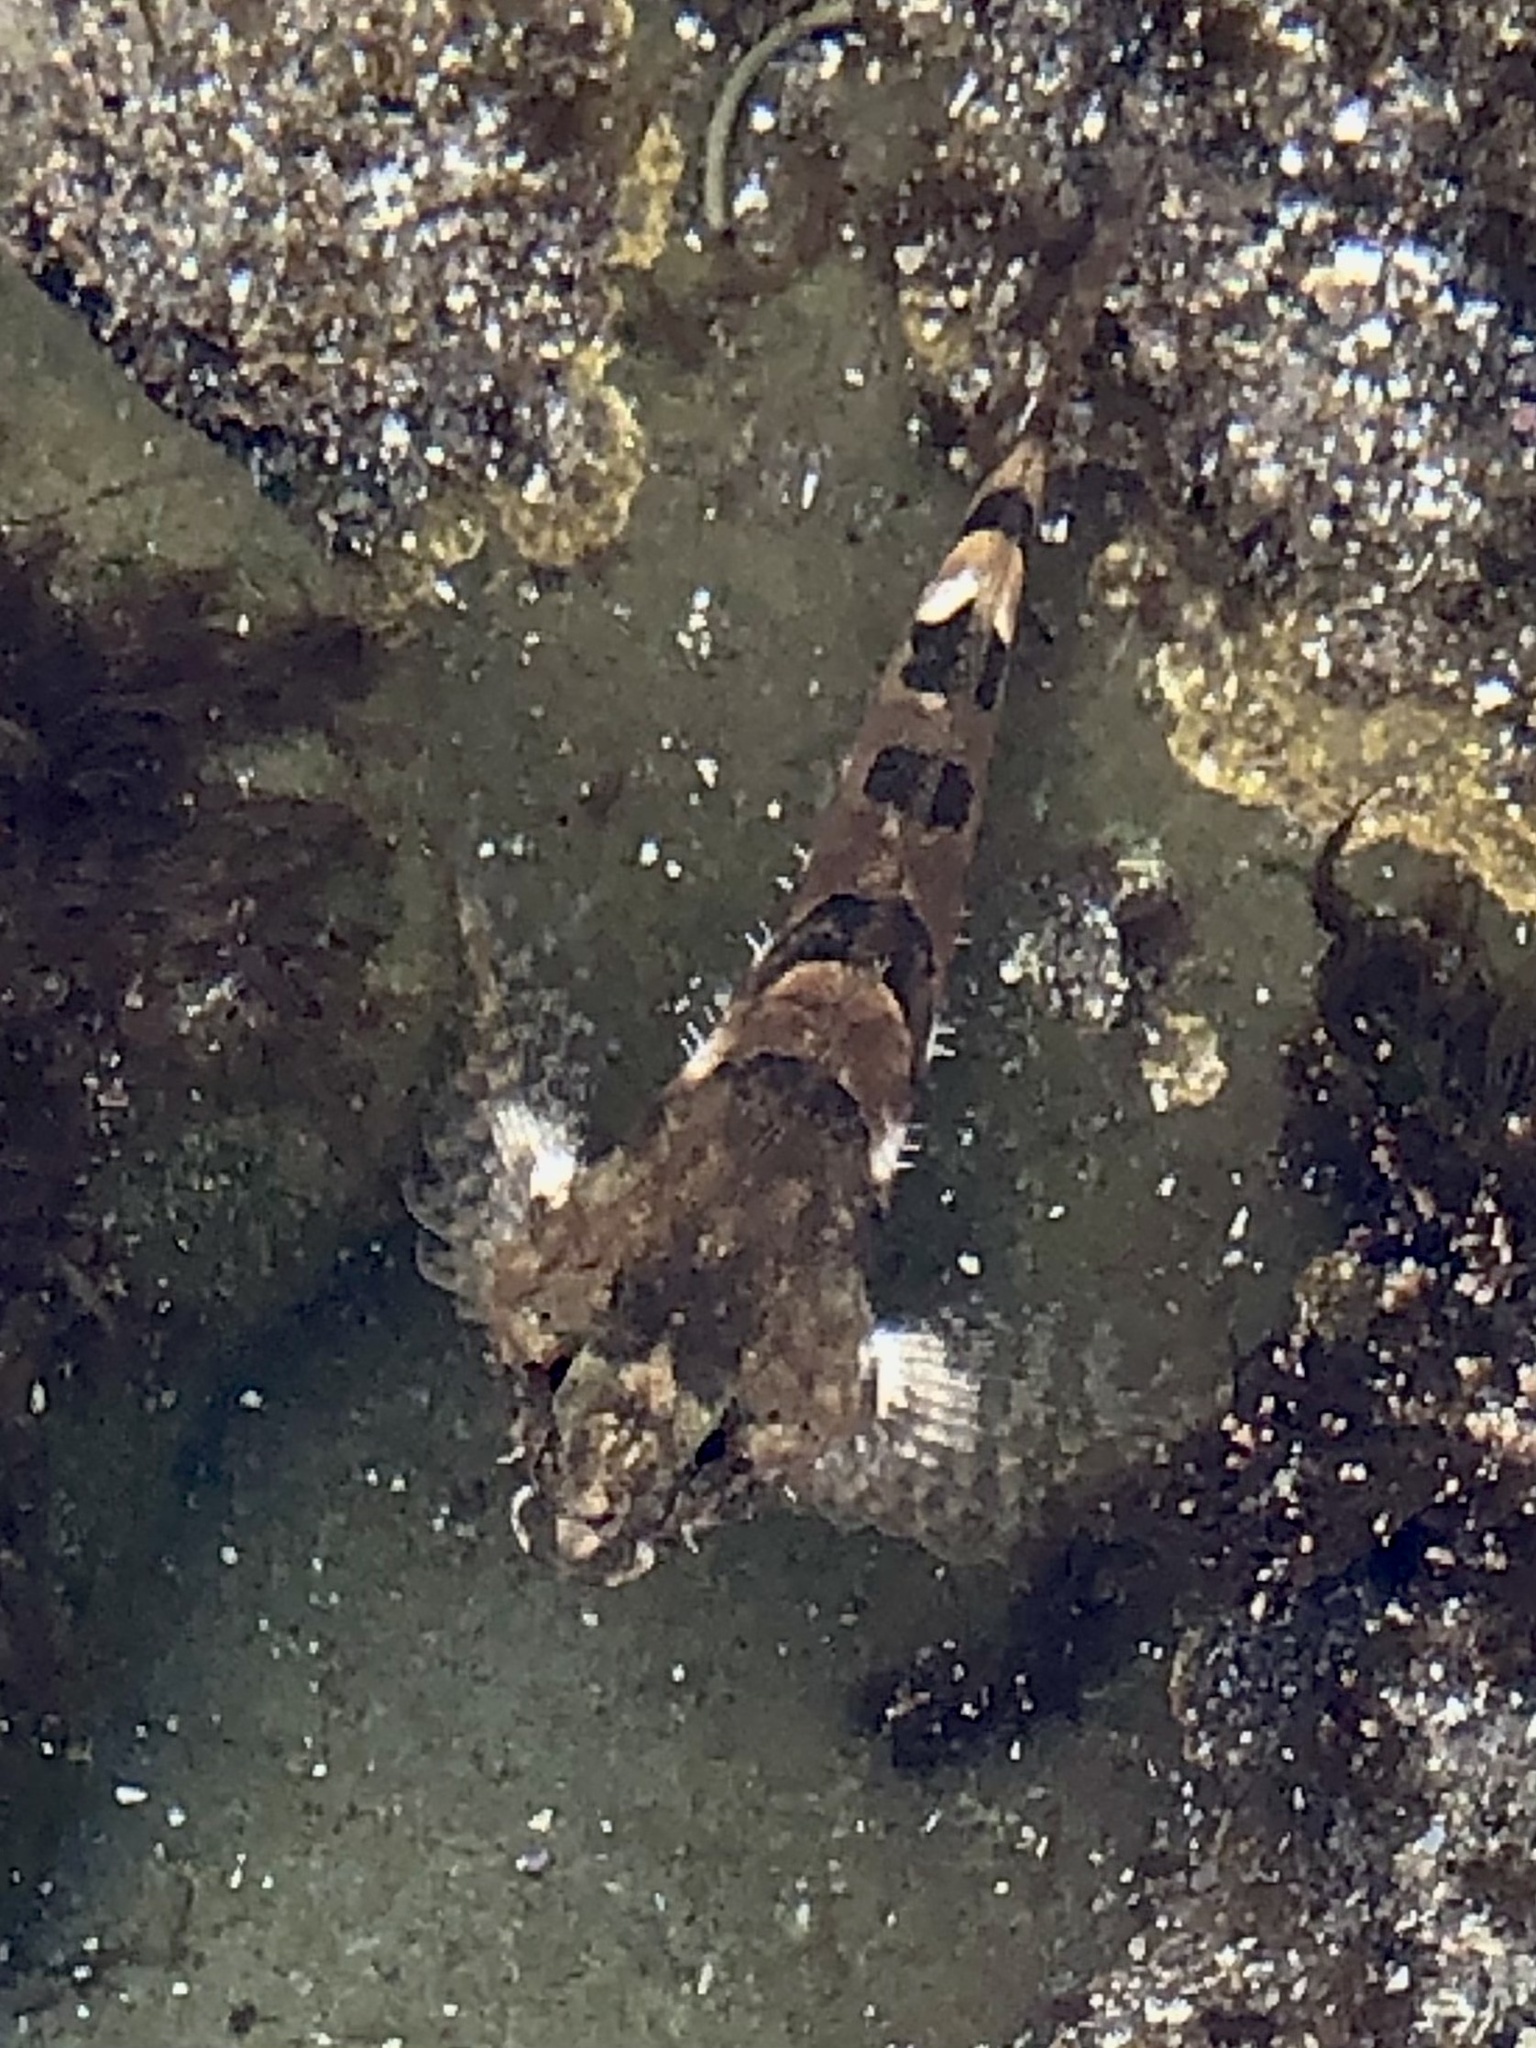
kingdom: Animalia
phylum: Chordata
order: Scorpaeniformes
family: Cottidae
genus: Oligocottus
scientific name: Oligocottus maculosus
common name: Tidepool sculpin
